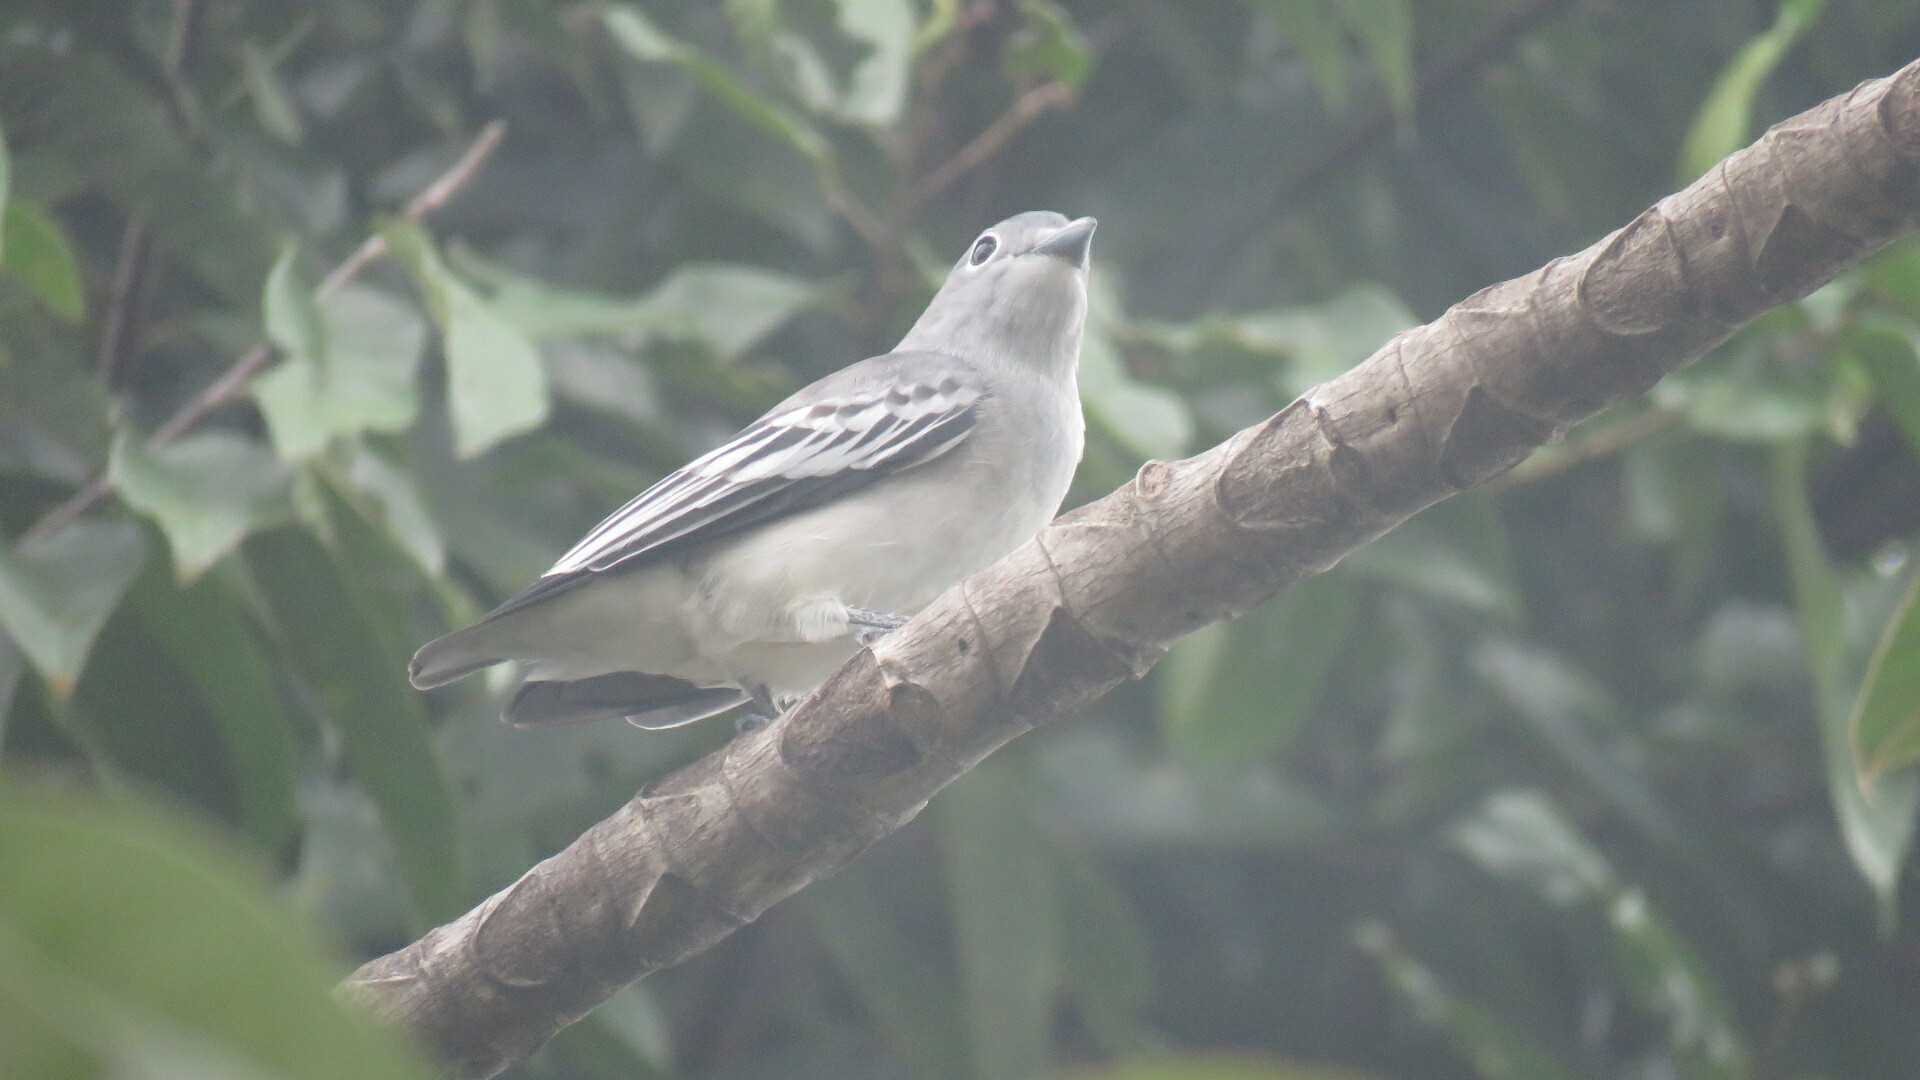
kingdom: Animalia
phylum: Chordata
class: Aves
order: Passeriformes
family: Cotingidae
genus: Carpodectes
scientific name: Carpodectes nitidus
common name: Snowy cotinga
